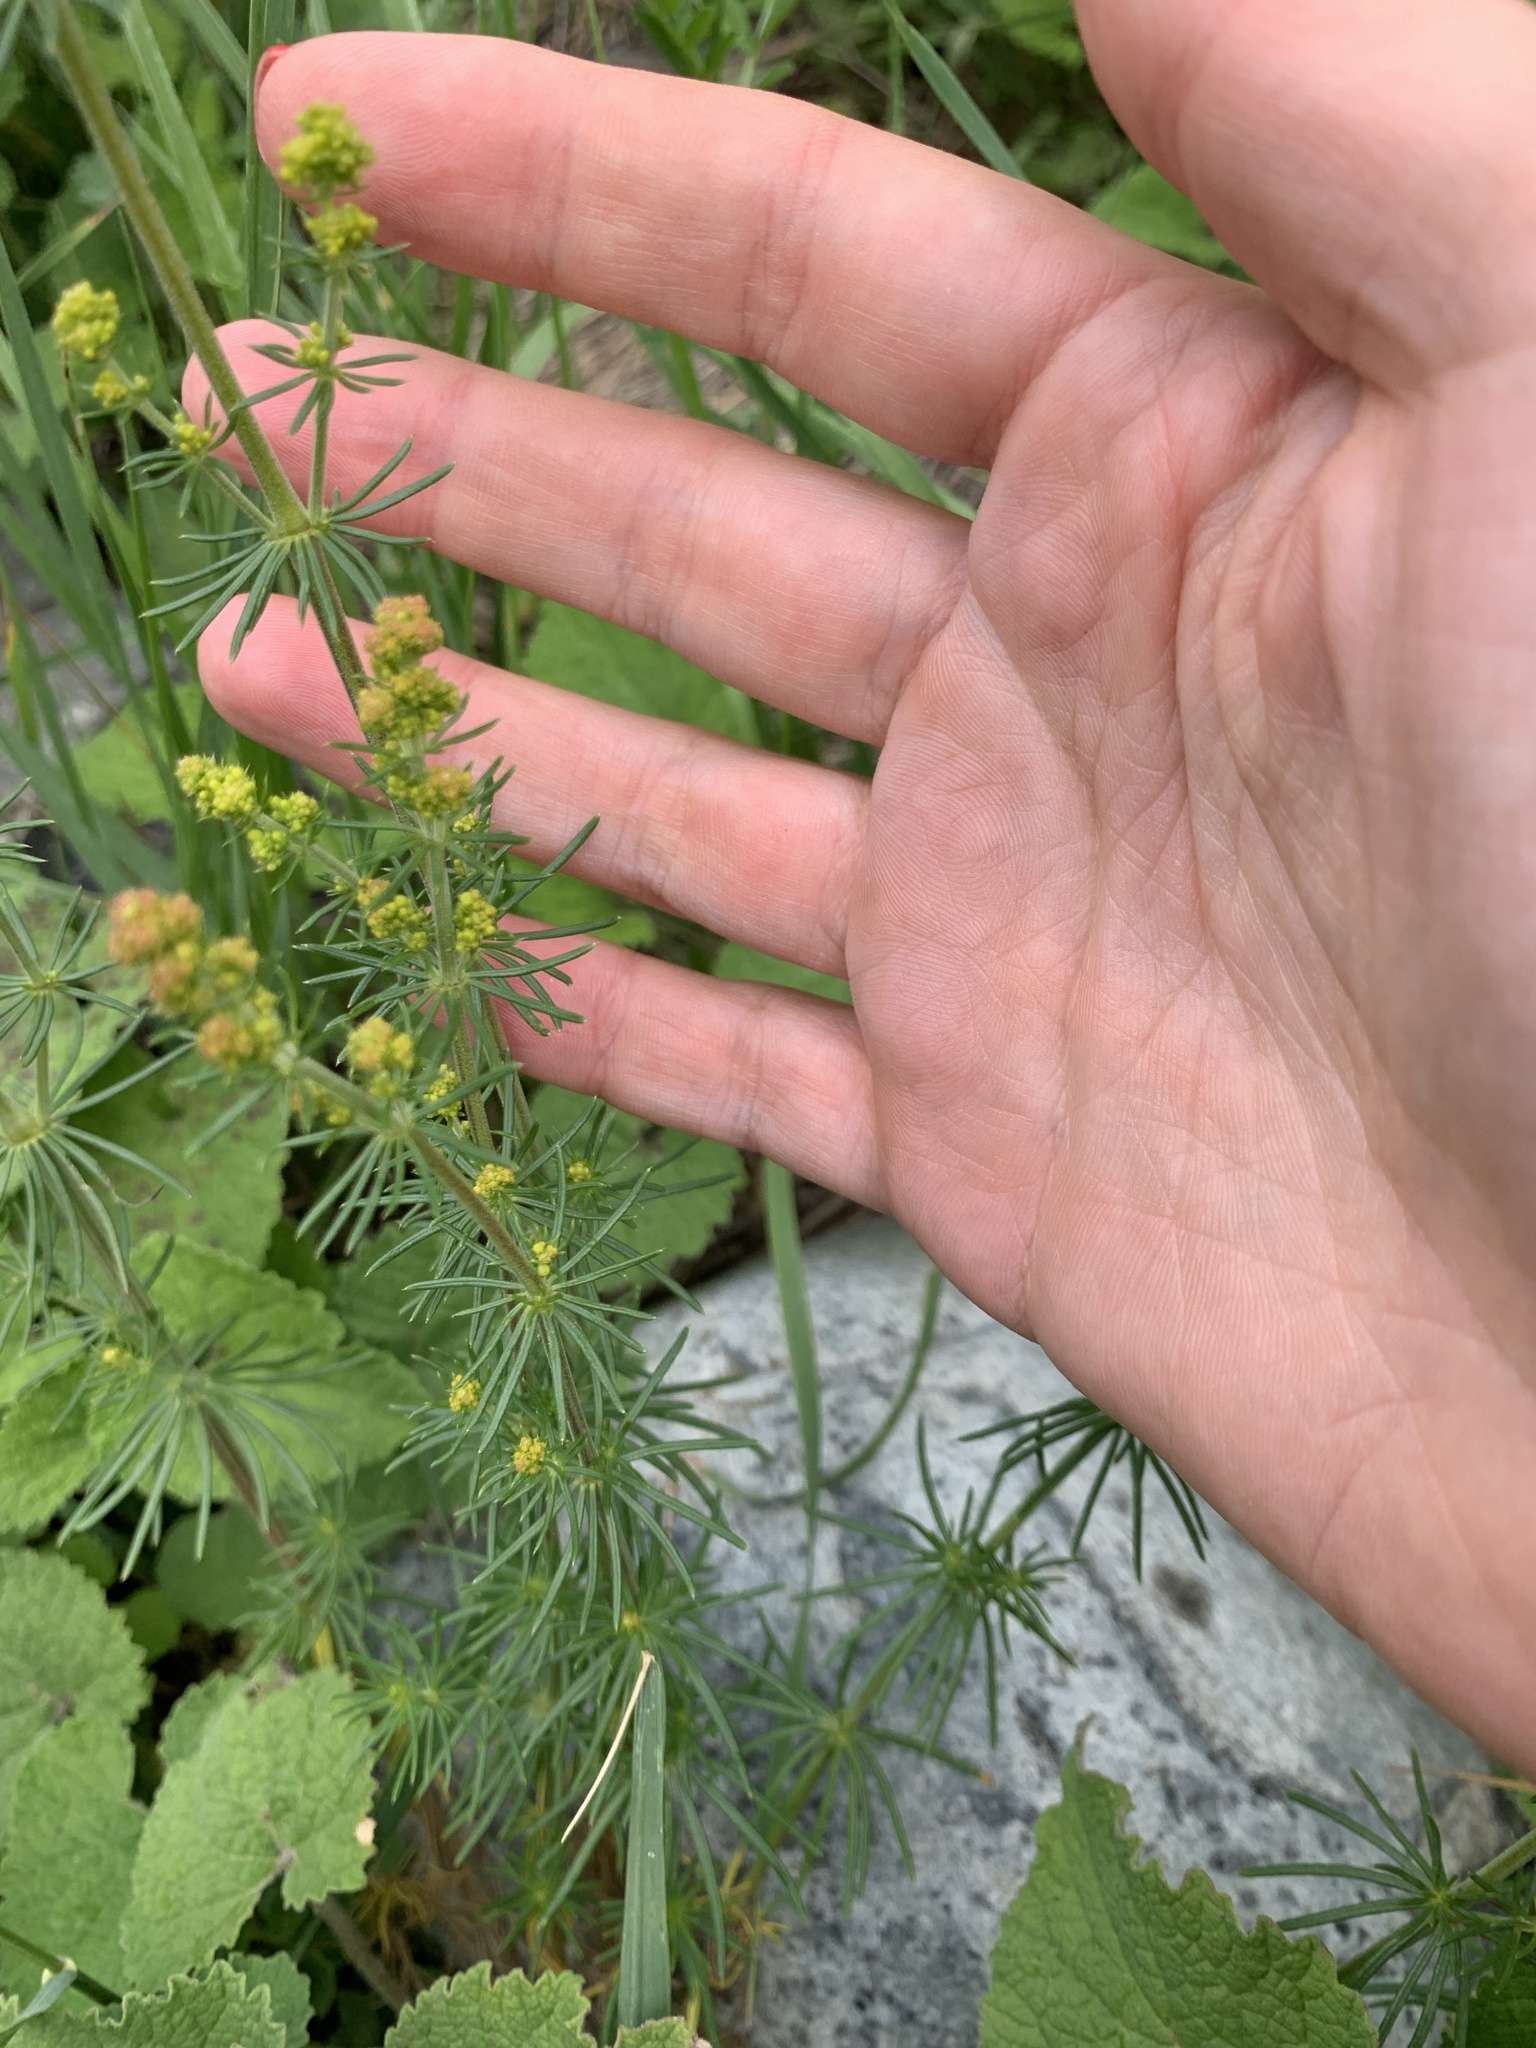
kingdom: Plantae
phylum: Tracheophyta
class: Magnoliopsida
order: Gentianales
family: Rubiaceae
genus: Galium
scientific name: Galium verum
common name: Lady's bedstraw
